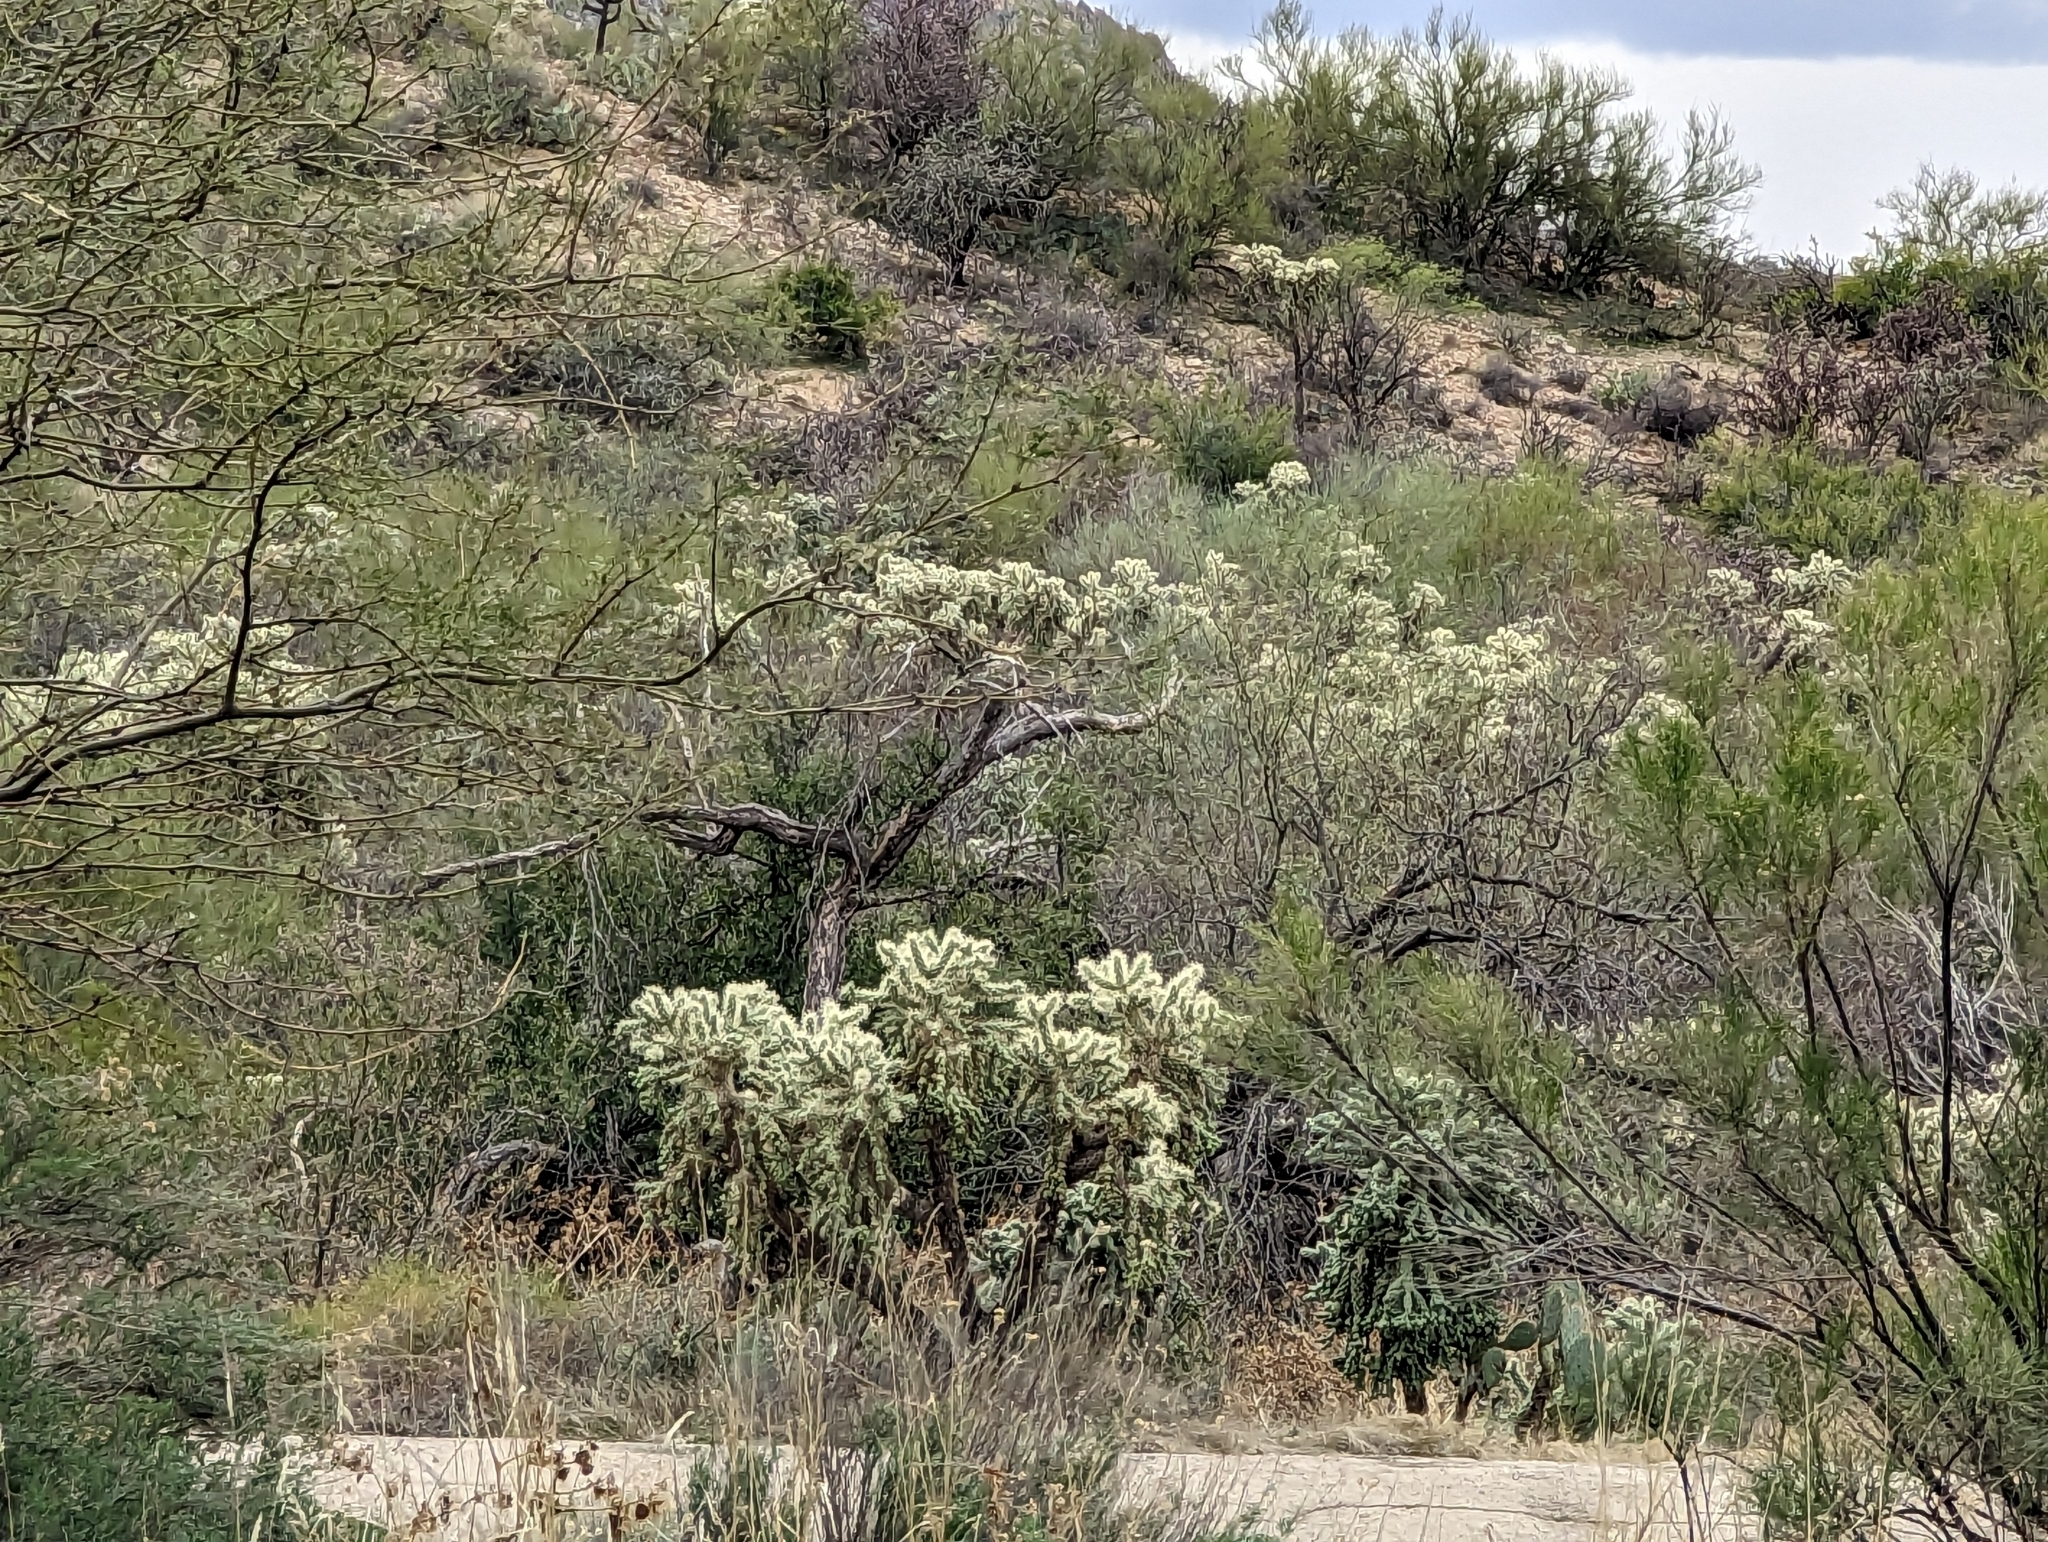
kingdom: Plantae
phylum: Tracheophyta
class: Magnoliopsida
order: Caryophyllales
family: Cactaceae
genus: Cylindropuntia
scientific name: Cylindropuntia fulgida
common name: Jumping cholla
